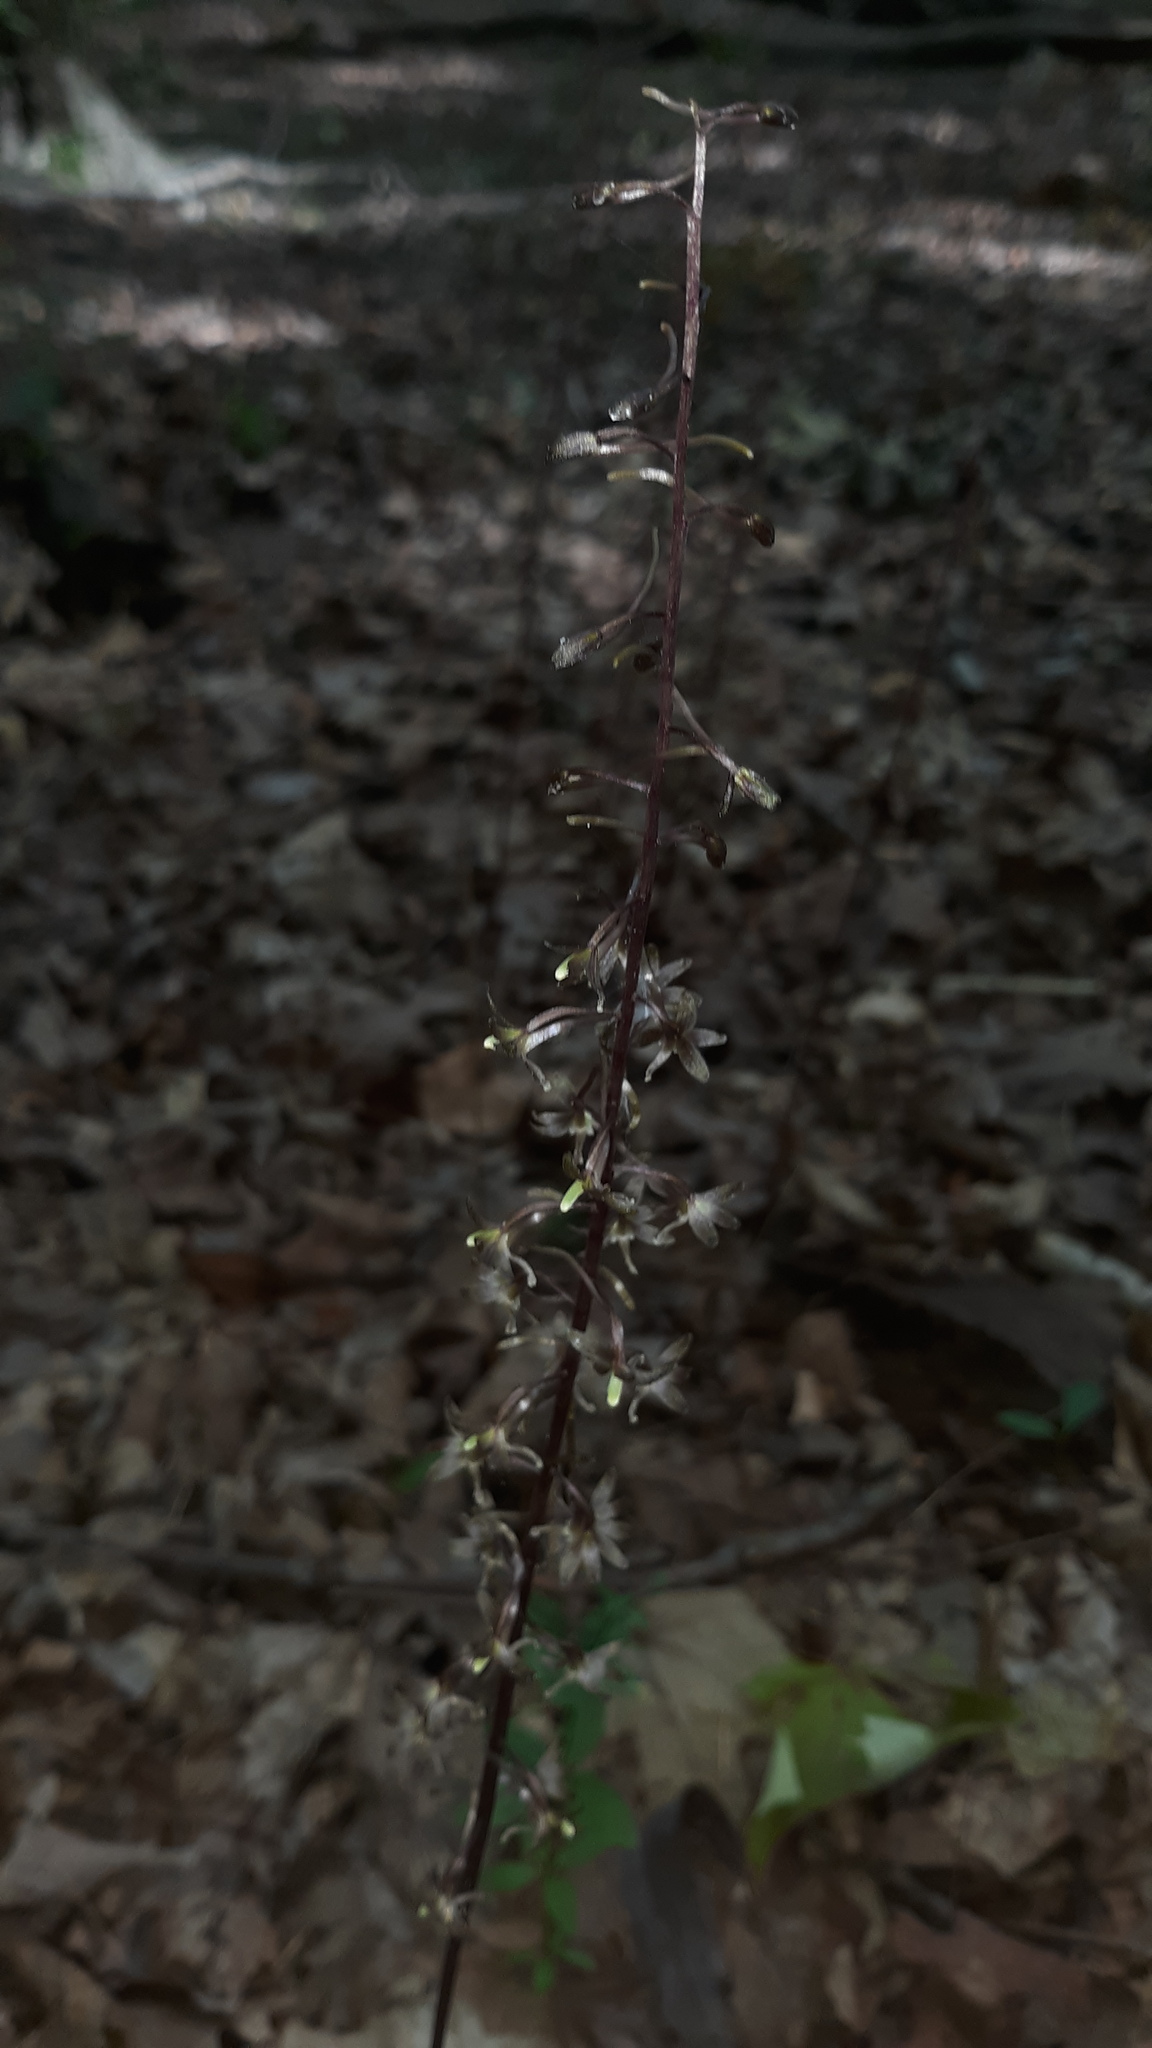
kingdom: Plantae
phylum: Tracheophyta
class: Liliopsida
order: Asparagales
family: Orchidaceae
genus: Tipularia
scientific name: Tipularia discolor
